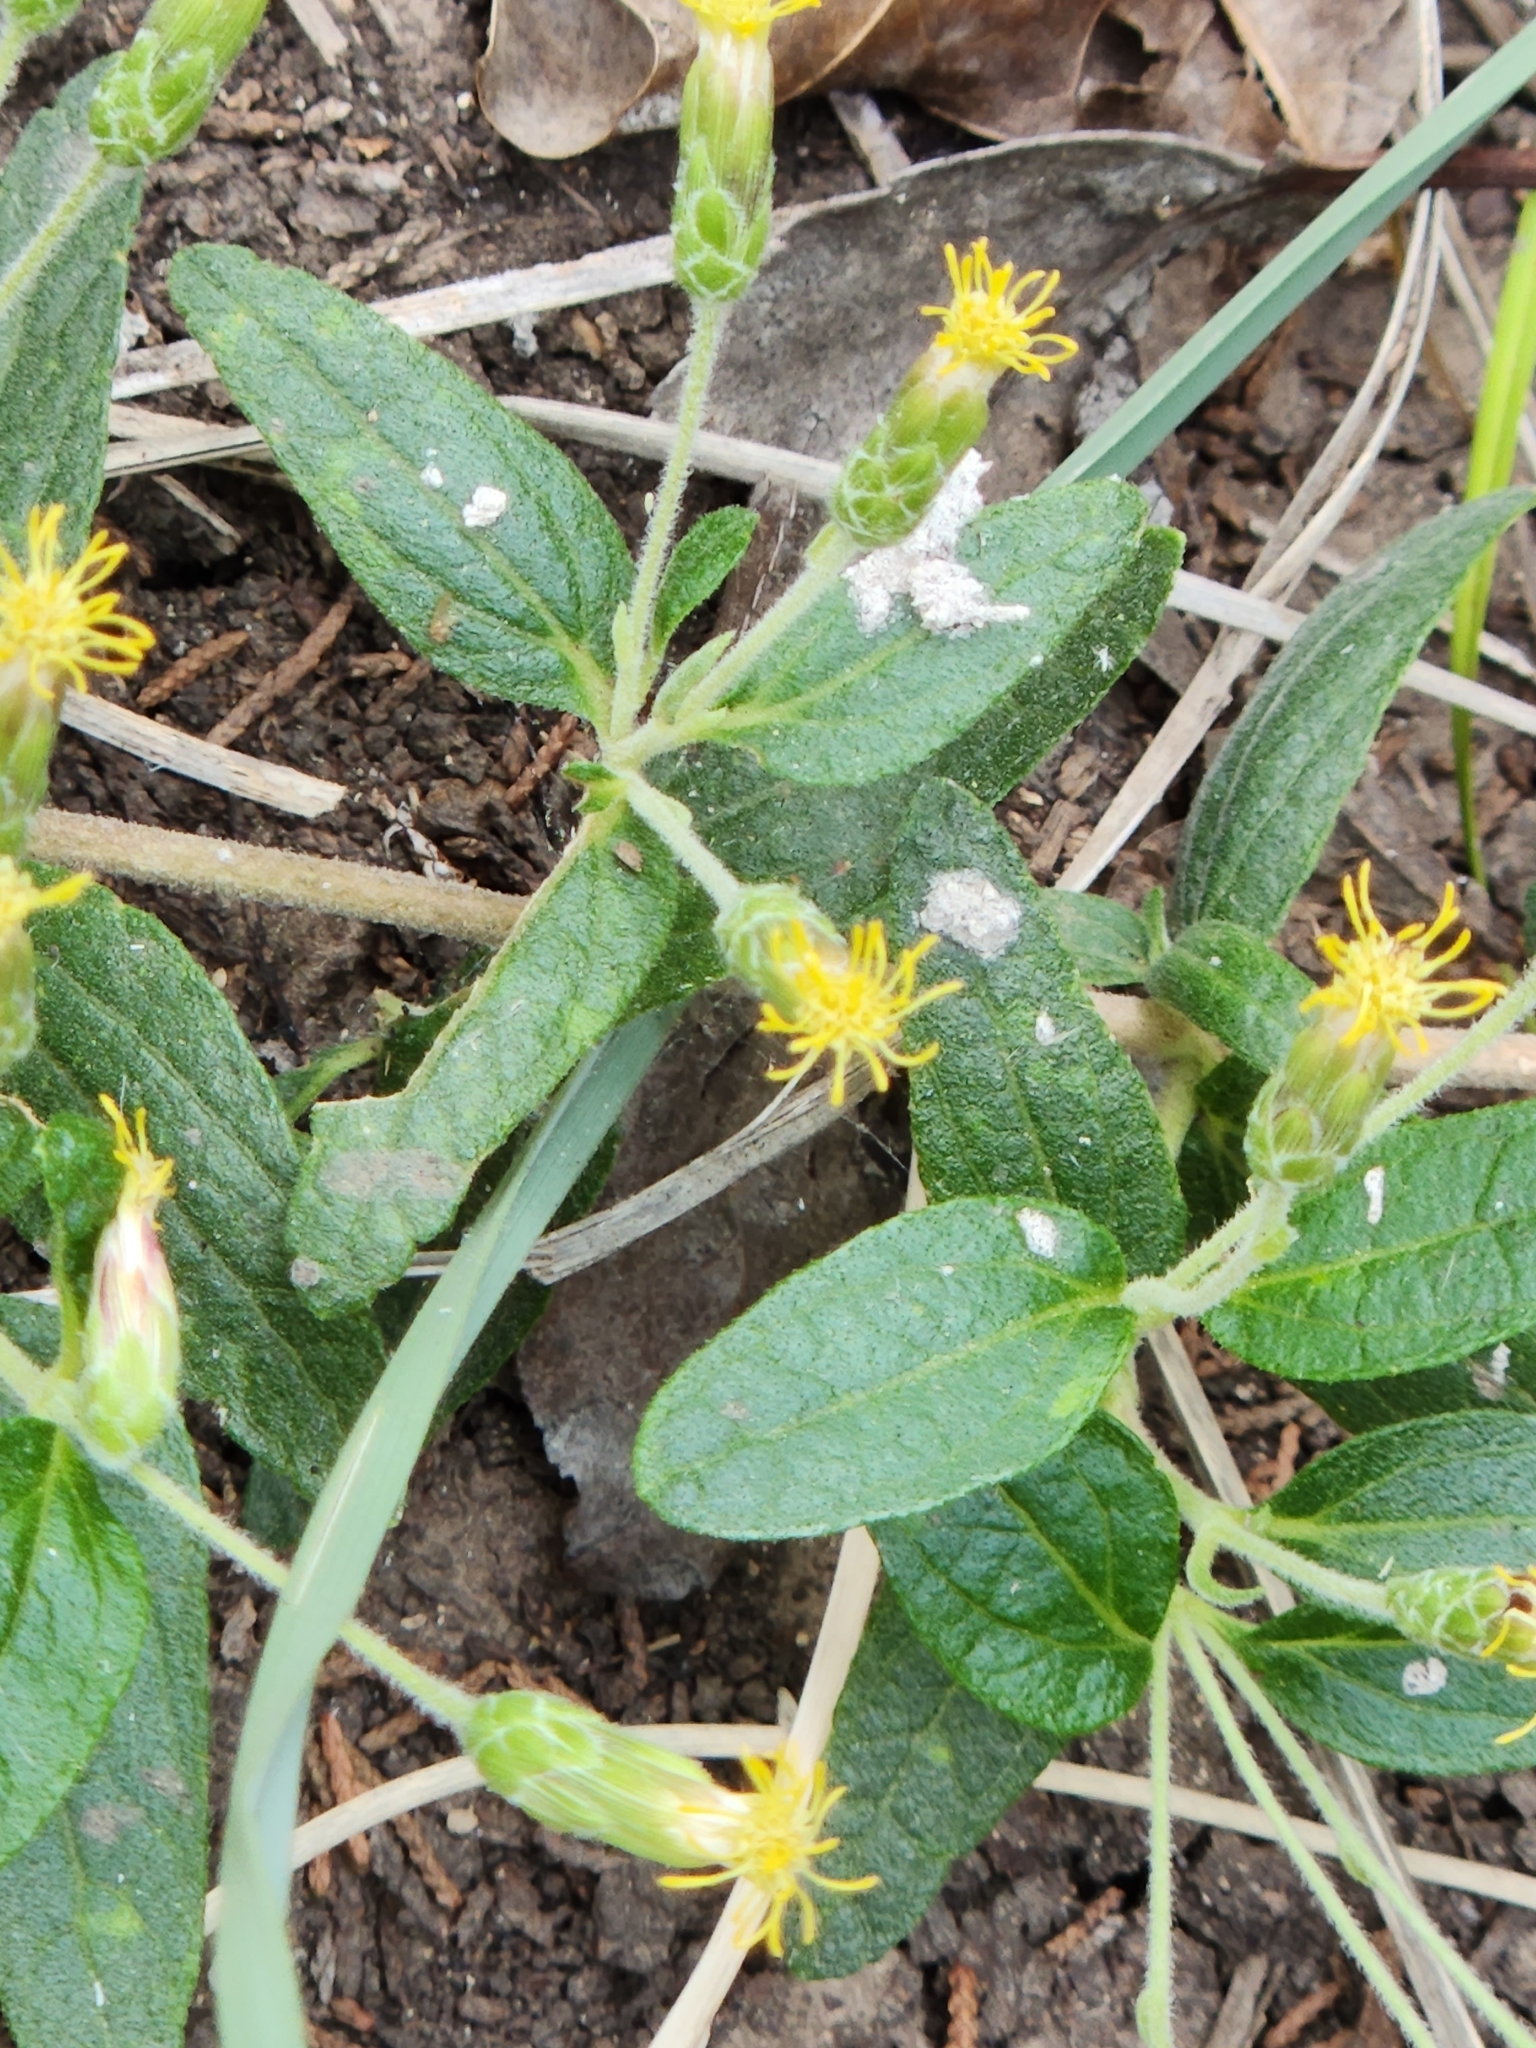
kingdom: Plantae
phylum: Tracheophyta
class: Magnoliopsida
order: Asterales
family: Asteraceae
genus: Brickellia
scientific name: Brickellia cylindracea
